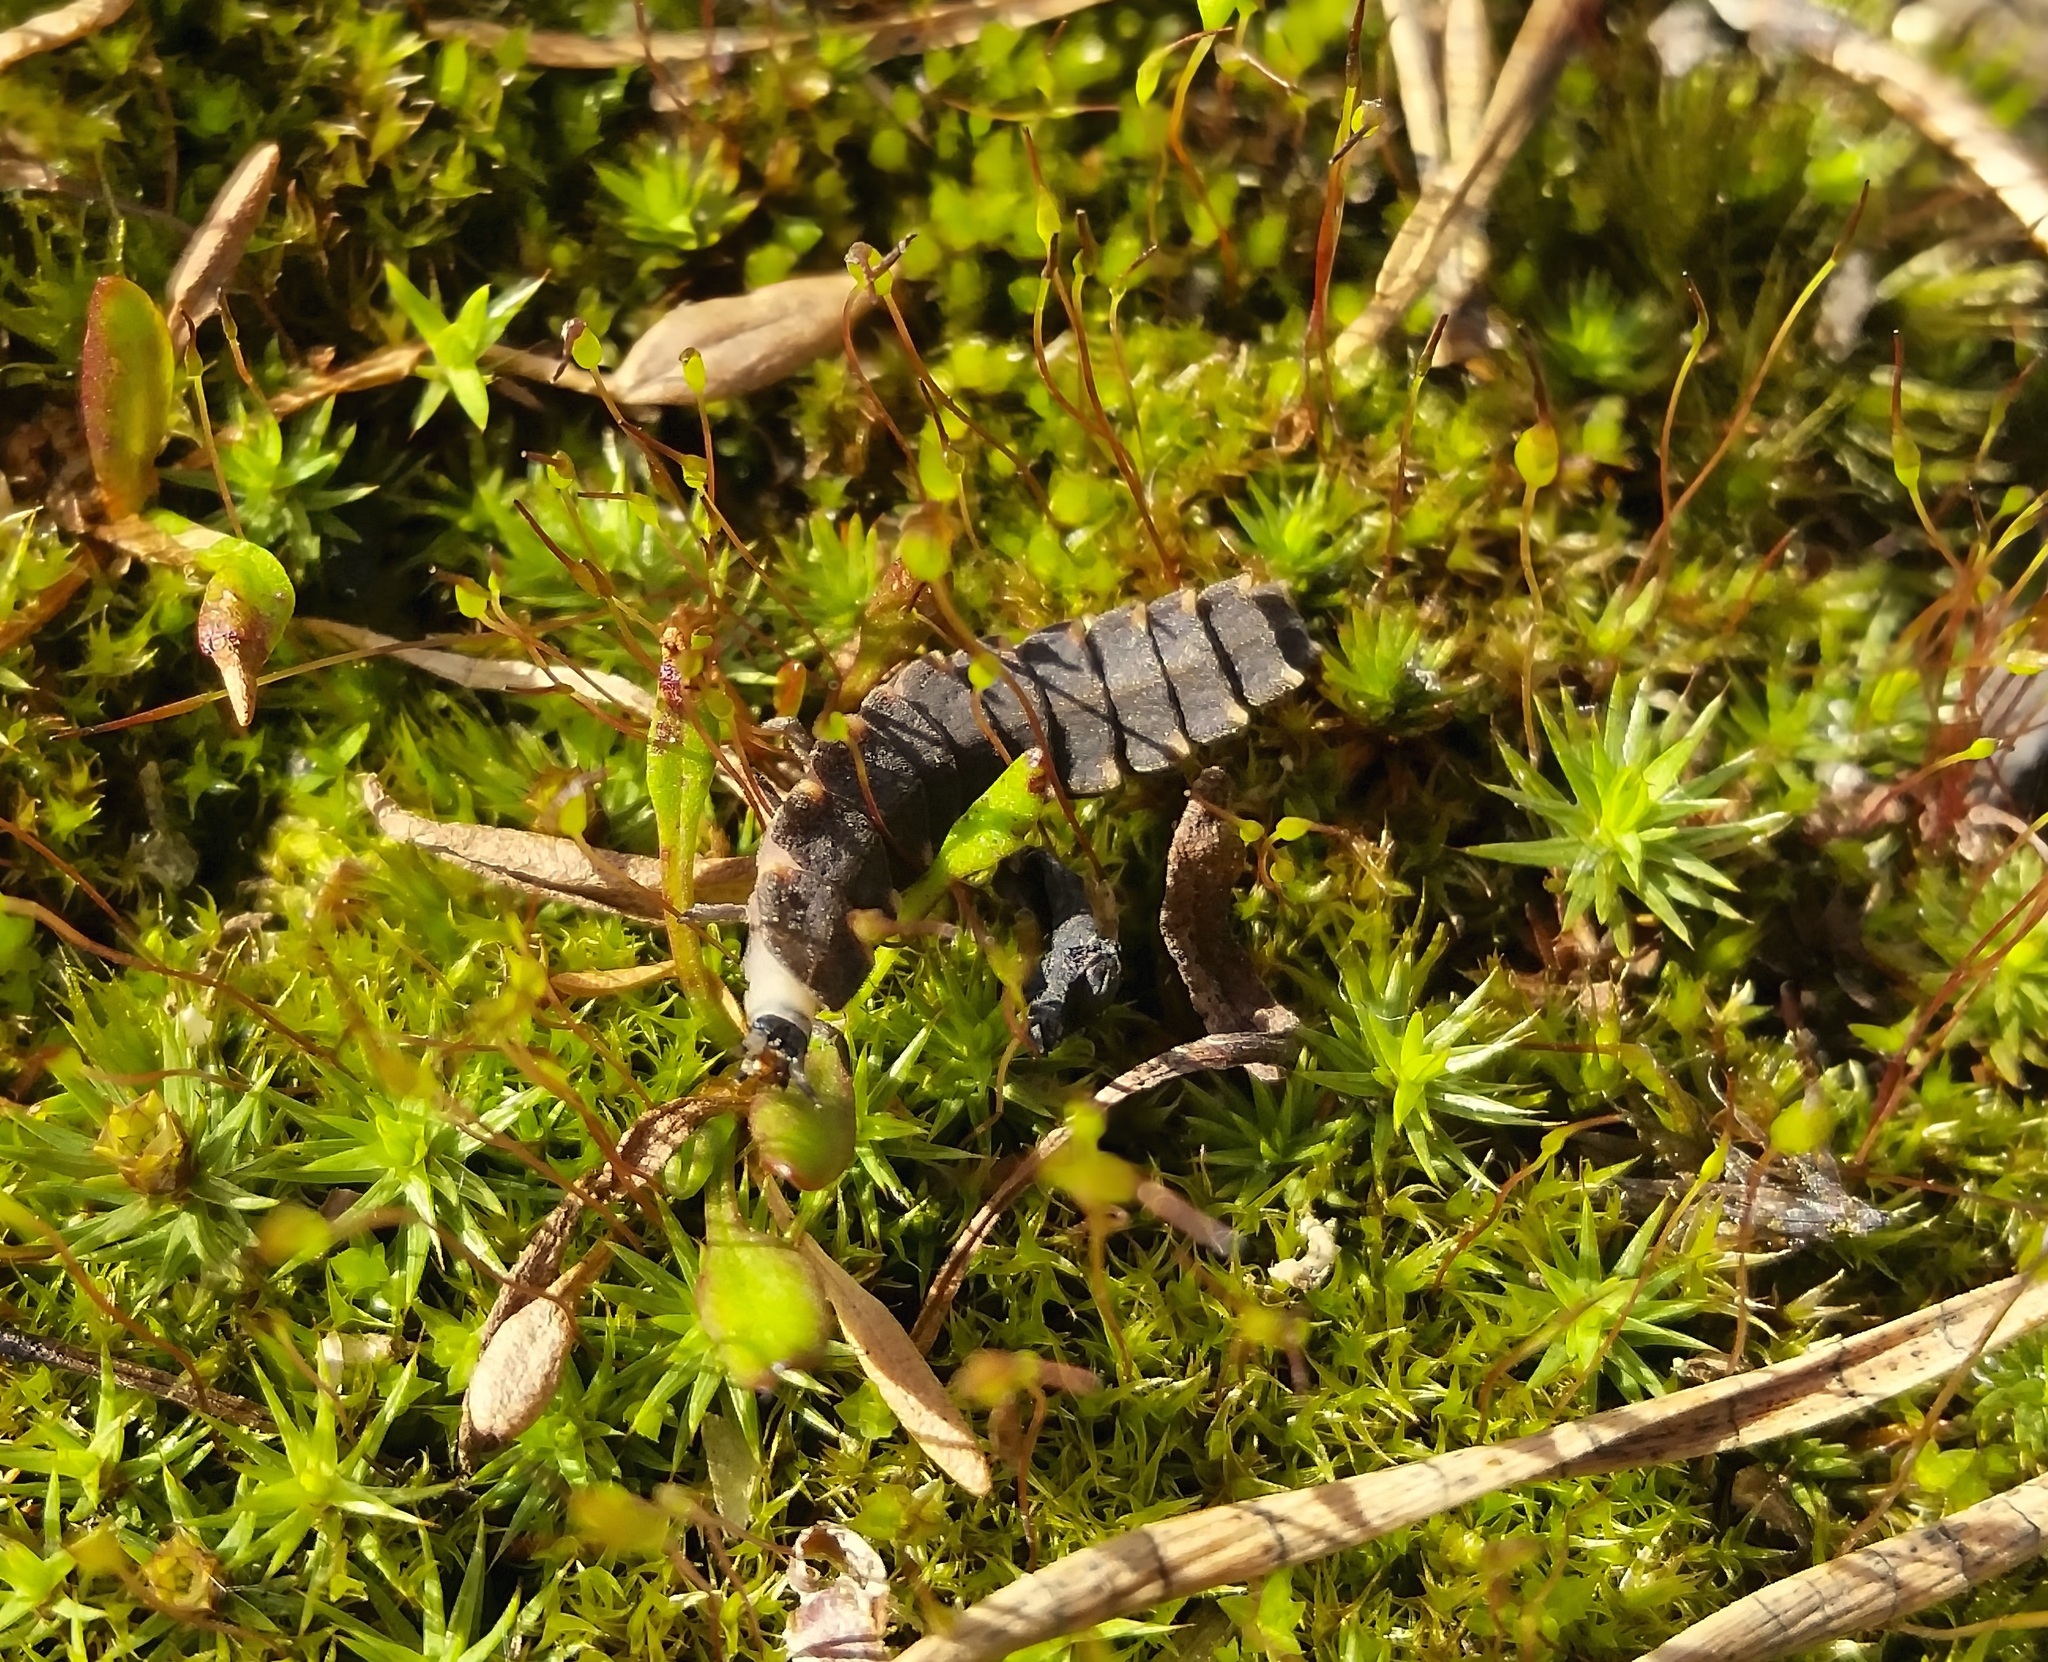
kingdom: Animalia
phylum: Arthropoda
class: Insecta
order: Coleoptera
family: Lampyridae
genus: Lampyris
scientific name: Lampyris noctiluca
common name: Glow-worm
